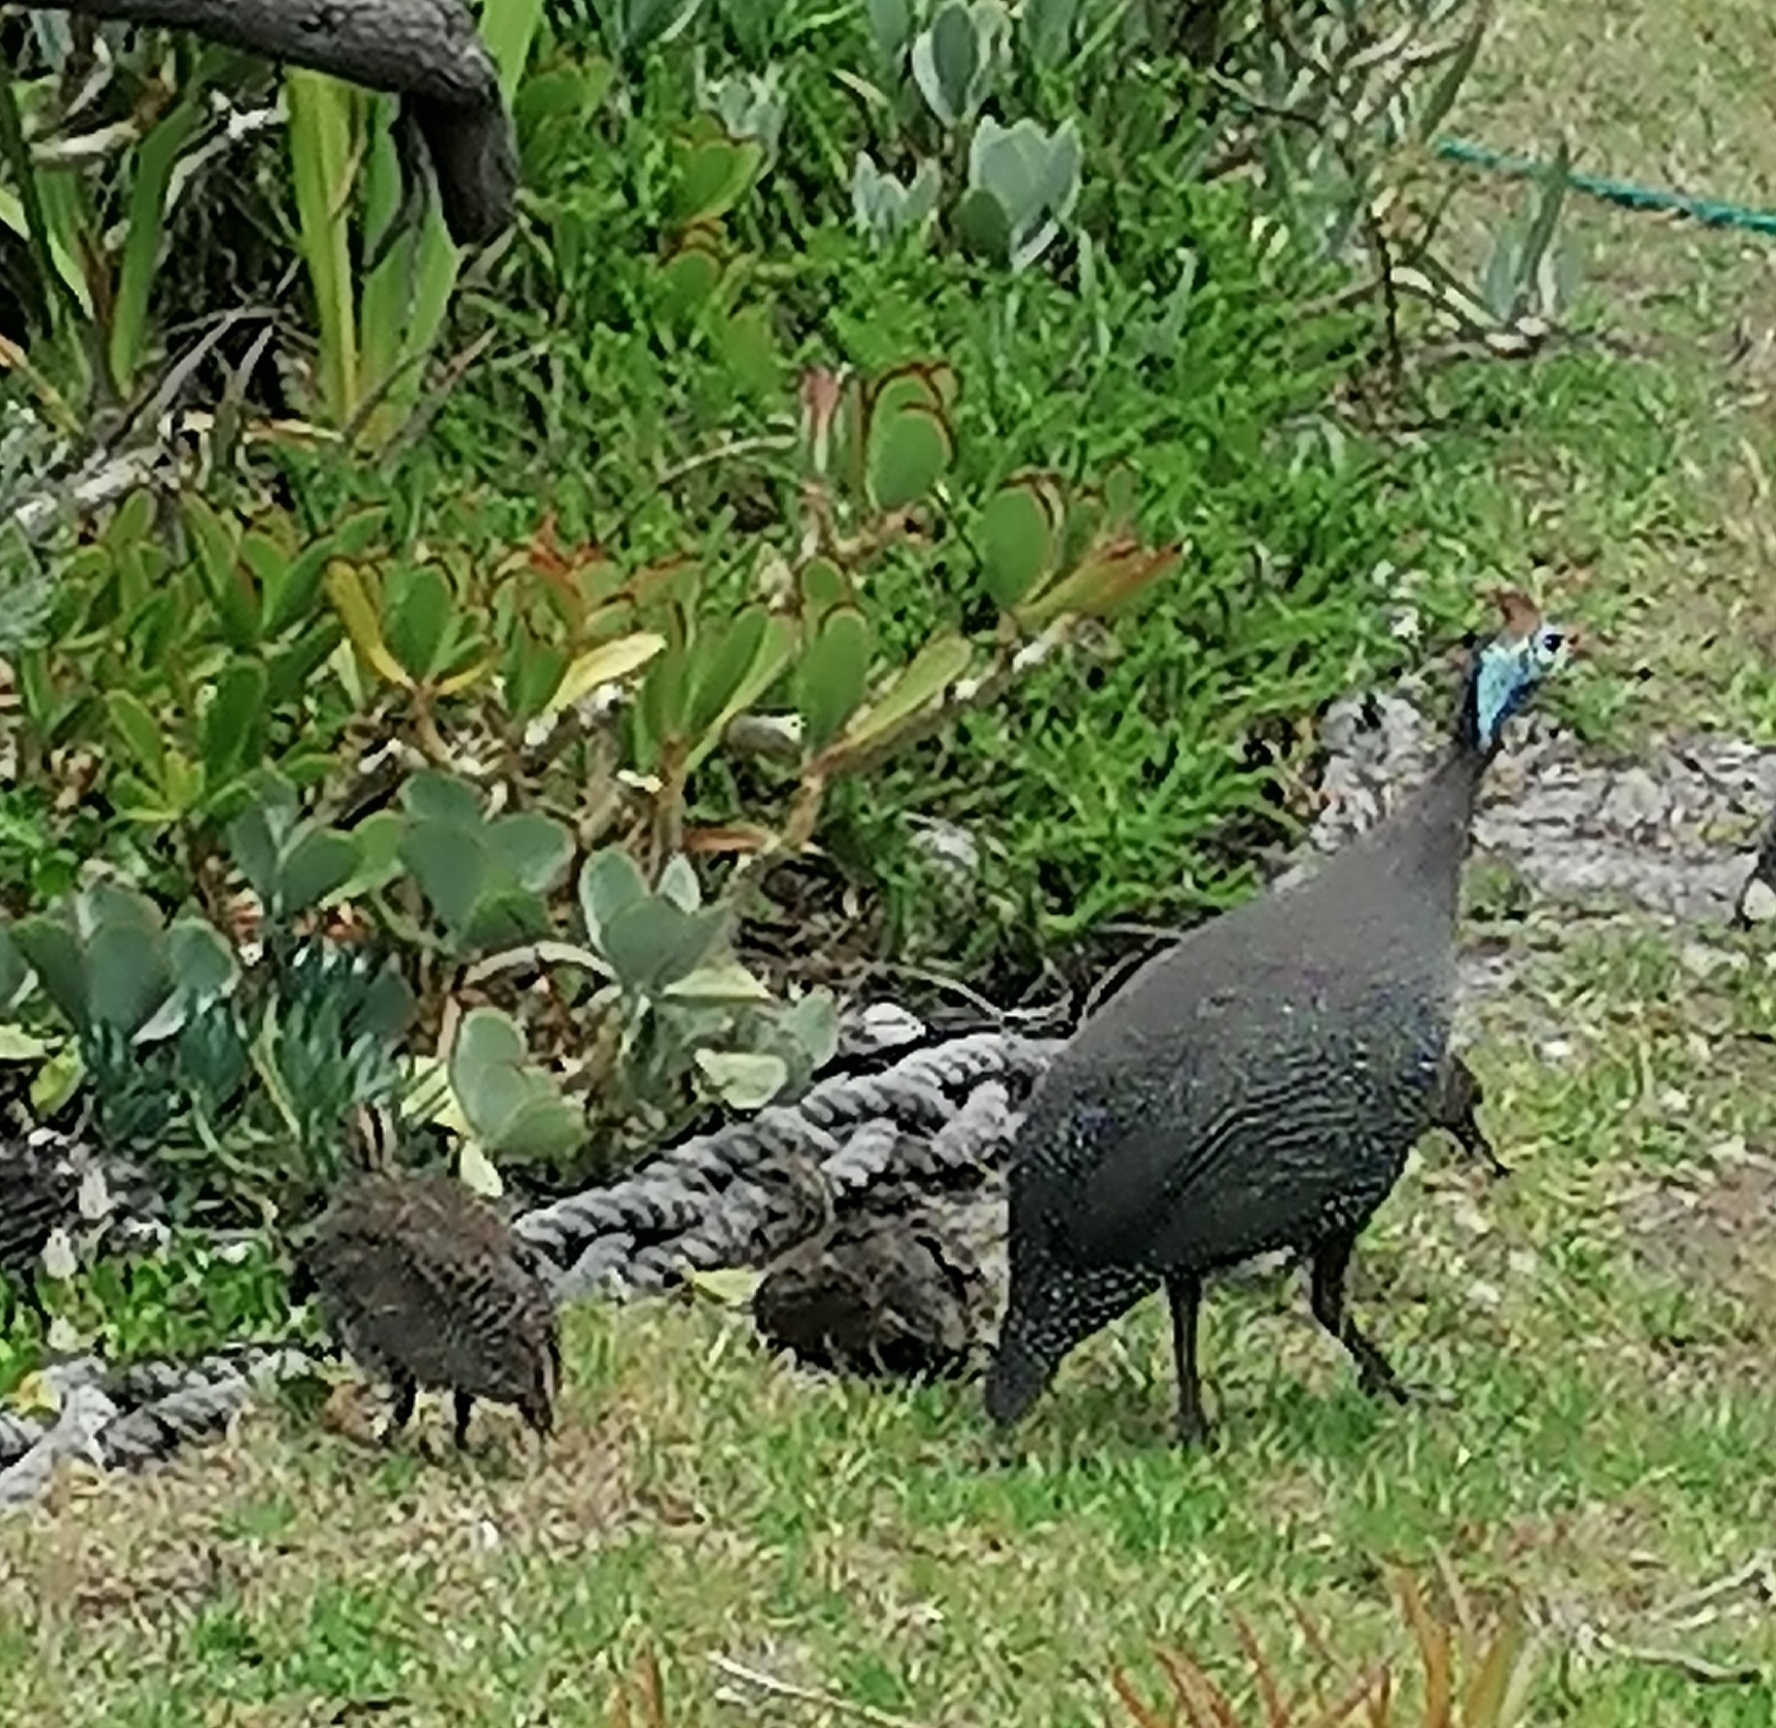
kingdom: Animalia
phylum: Chordata
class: Aves
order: Galliformes
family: Numididae
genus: Numida
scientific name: Numida meleagris
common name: Helmeted guineafowl
